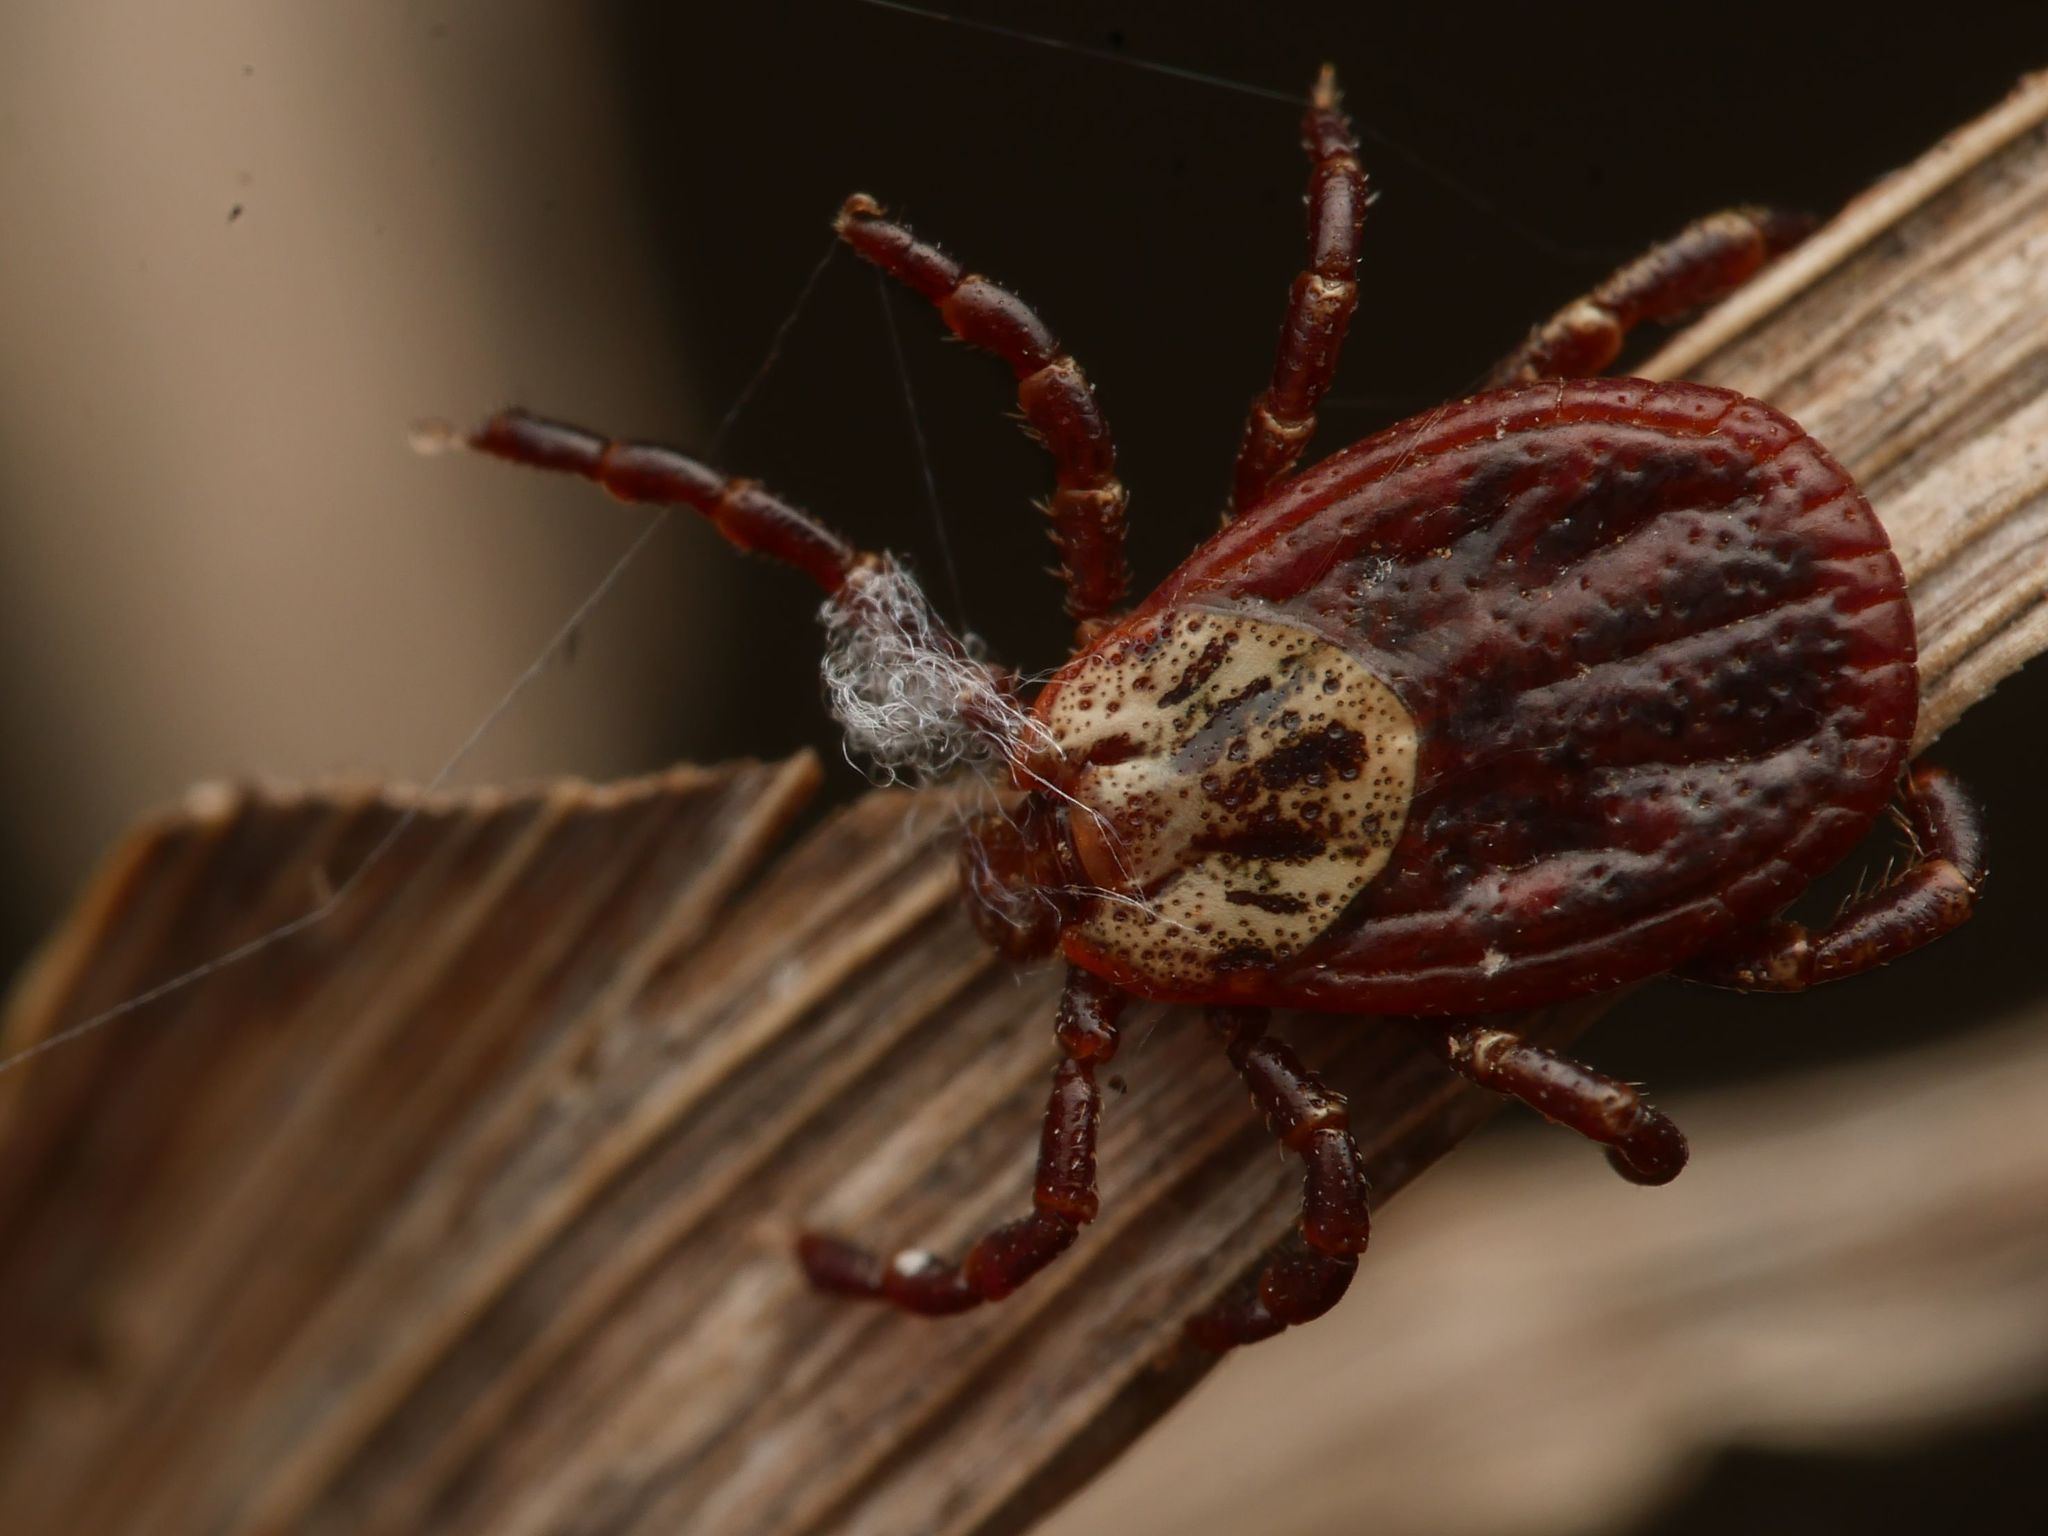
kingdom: Animalia
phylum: Arthropoda
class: Arachnida
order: Ixodida
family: Ixodidae
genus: Dermacentor
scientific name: Dermacentor reticulatus
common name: Ornate cow tick
